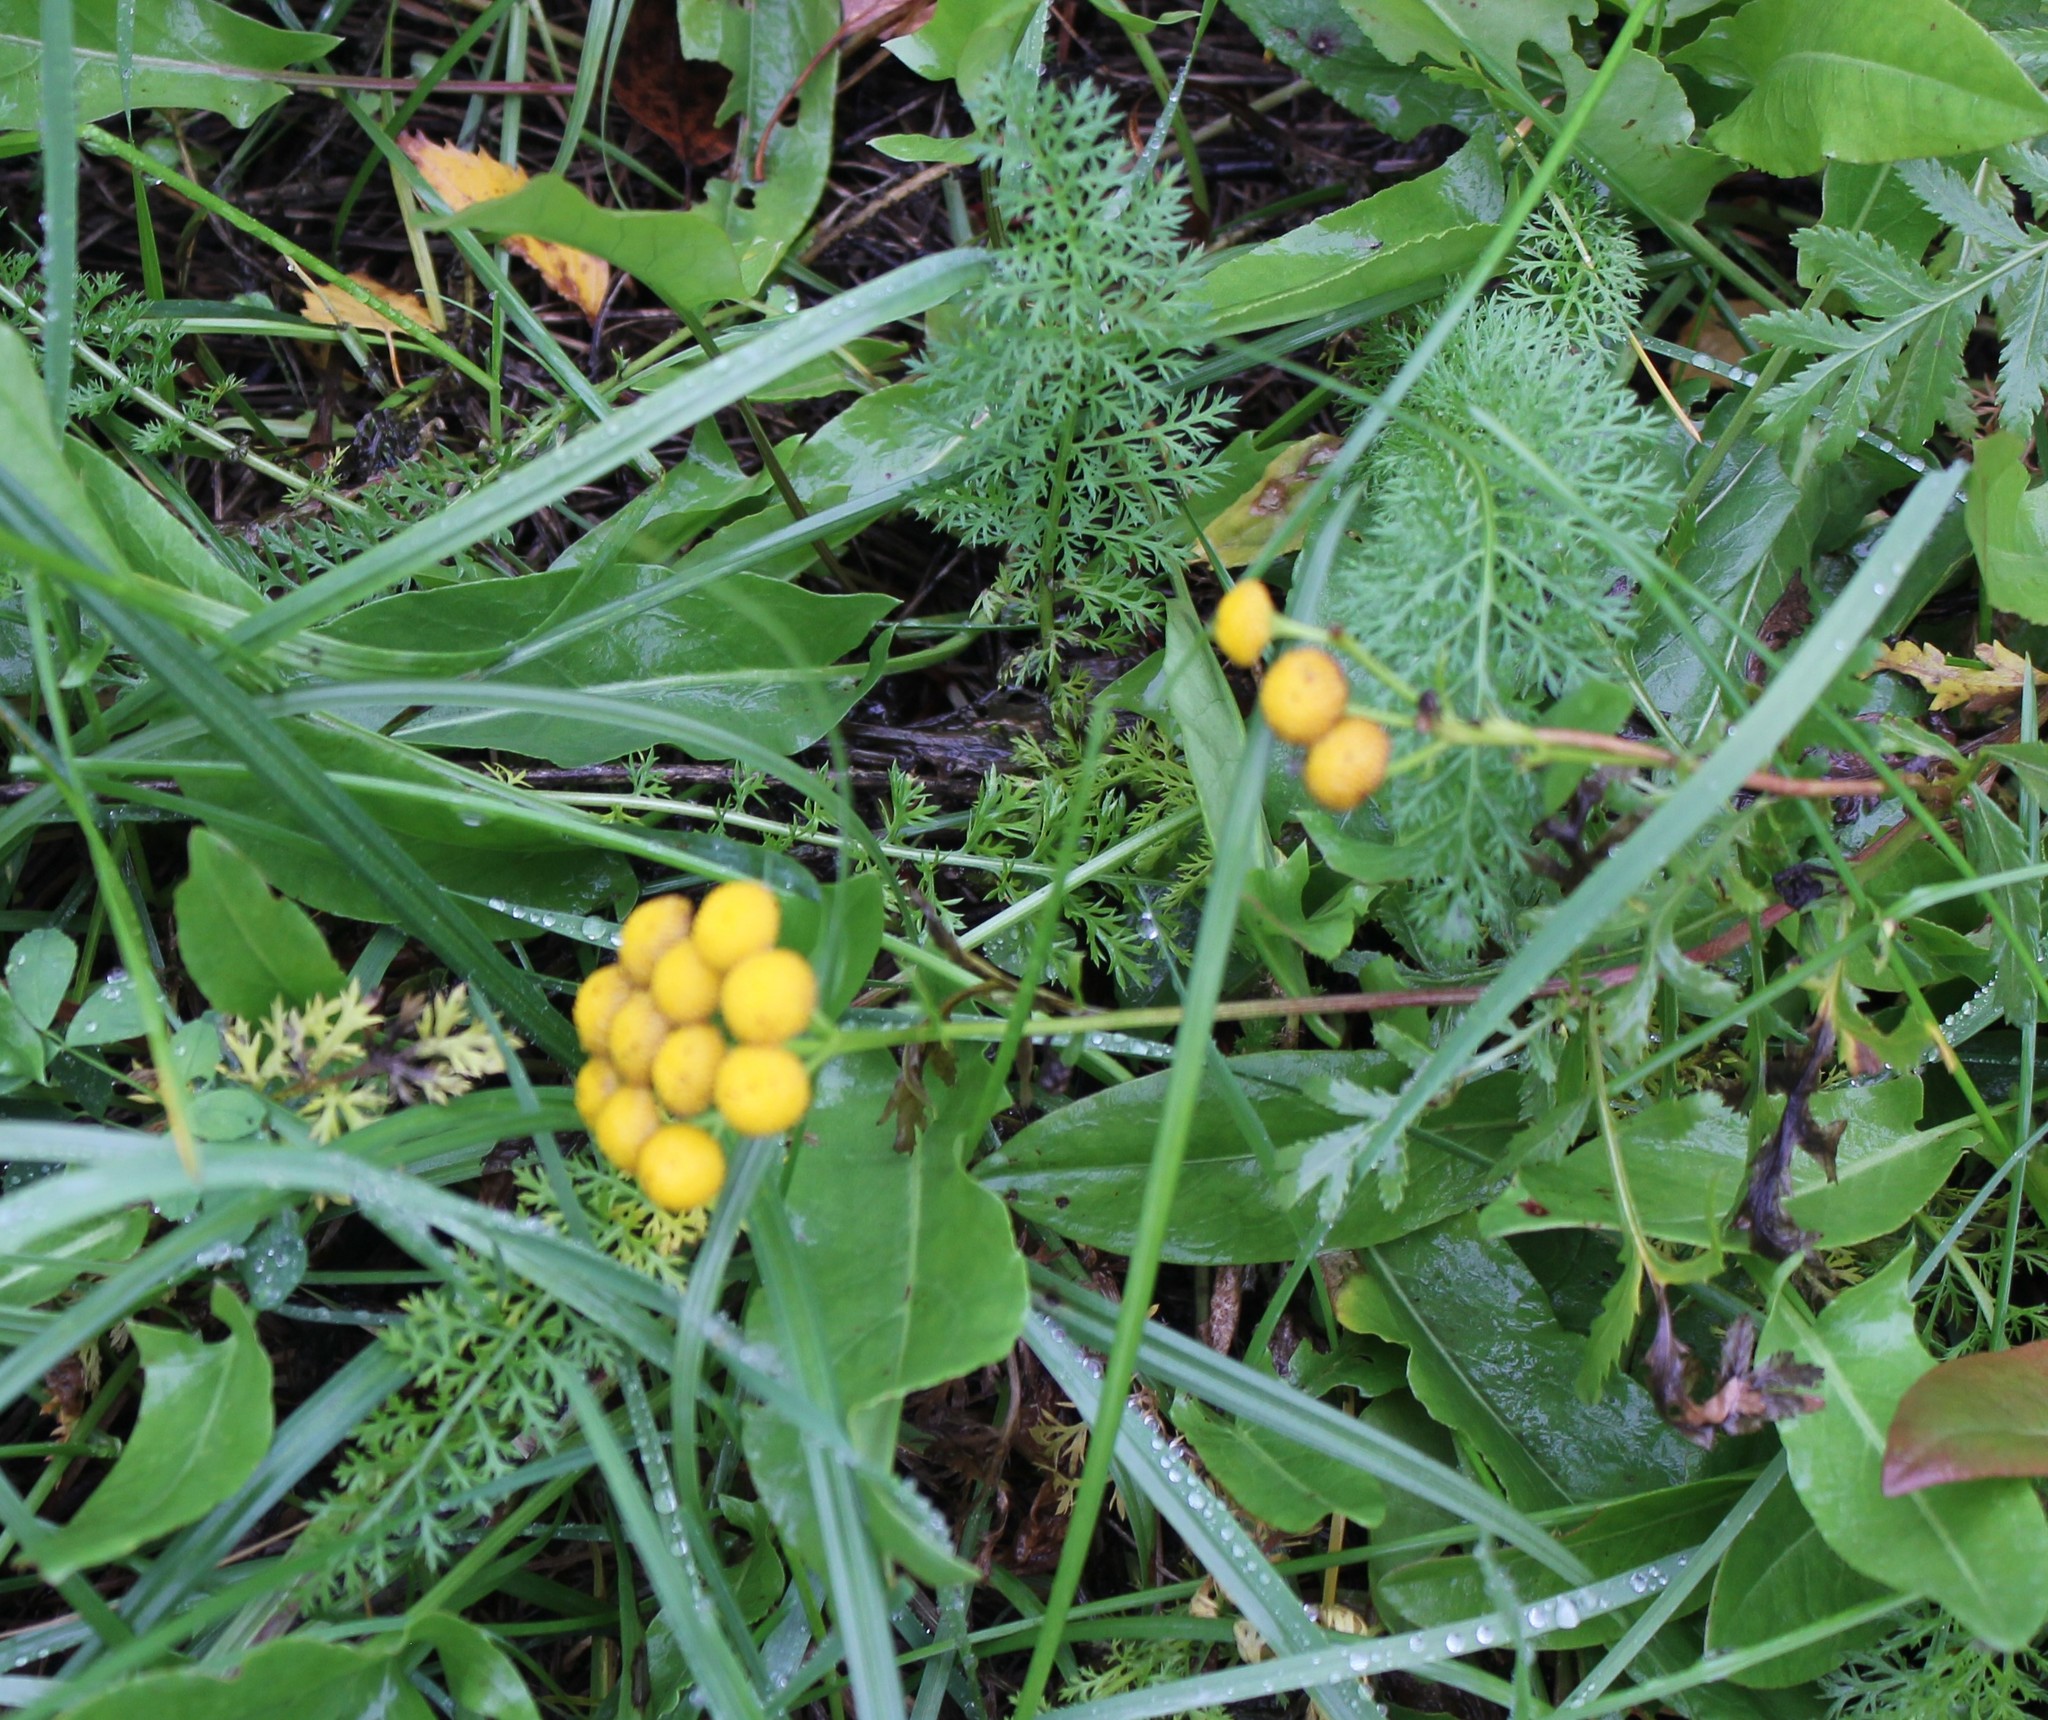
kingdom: Plantae
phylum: Tracheophyta
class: Magnoliopsida
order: Asterales
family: Asteraceae
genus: Tanacetum
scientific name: Tanacetum vulgare
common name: Common tansy
